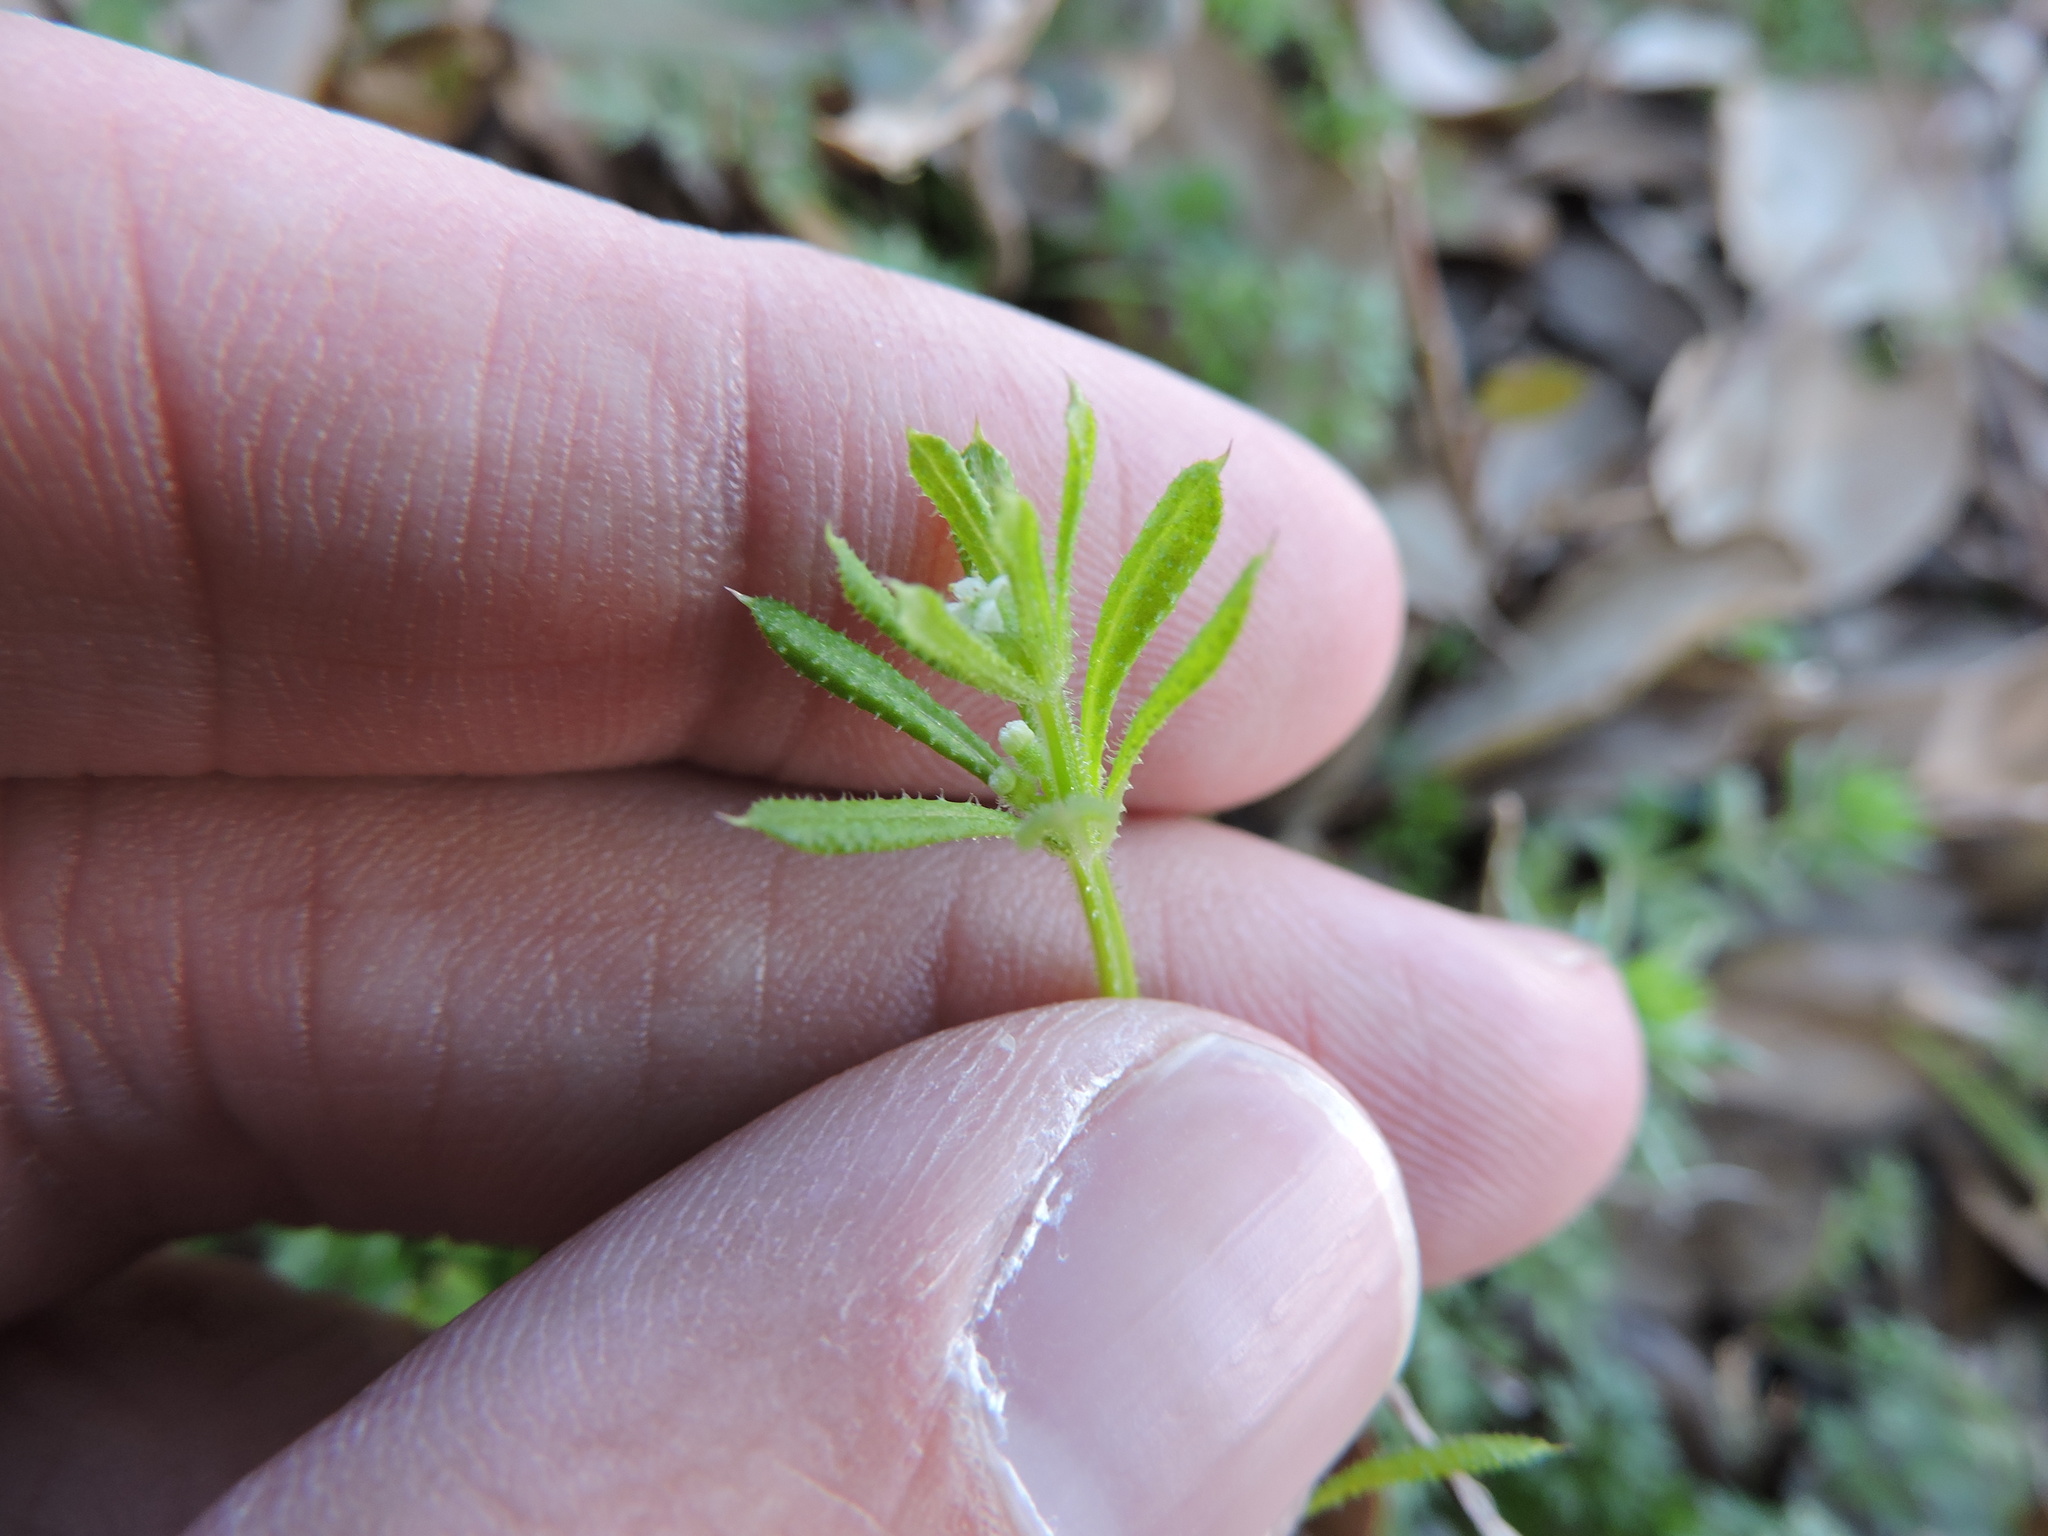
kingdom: Plantae
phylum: Tracheophyta
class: Magnoliopsida
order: Gentianales
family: Rubiaceae
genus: Galium
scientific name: Galium aparine
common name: Cleavers
